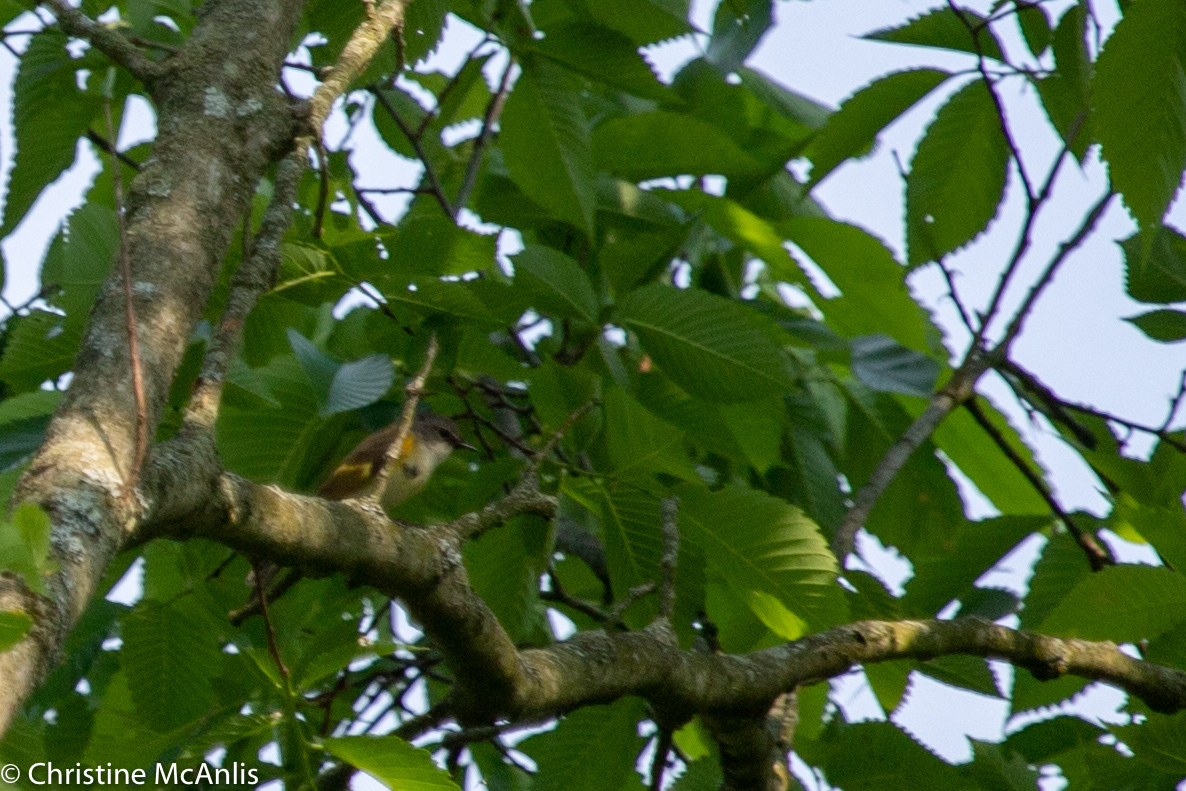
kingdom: Animalia
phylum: Chordata
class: Aves
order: Passeriformes
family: Parulidae
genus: Setophaga
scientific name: Setophaga ruticilla
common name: American redstart
